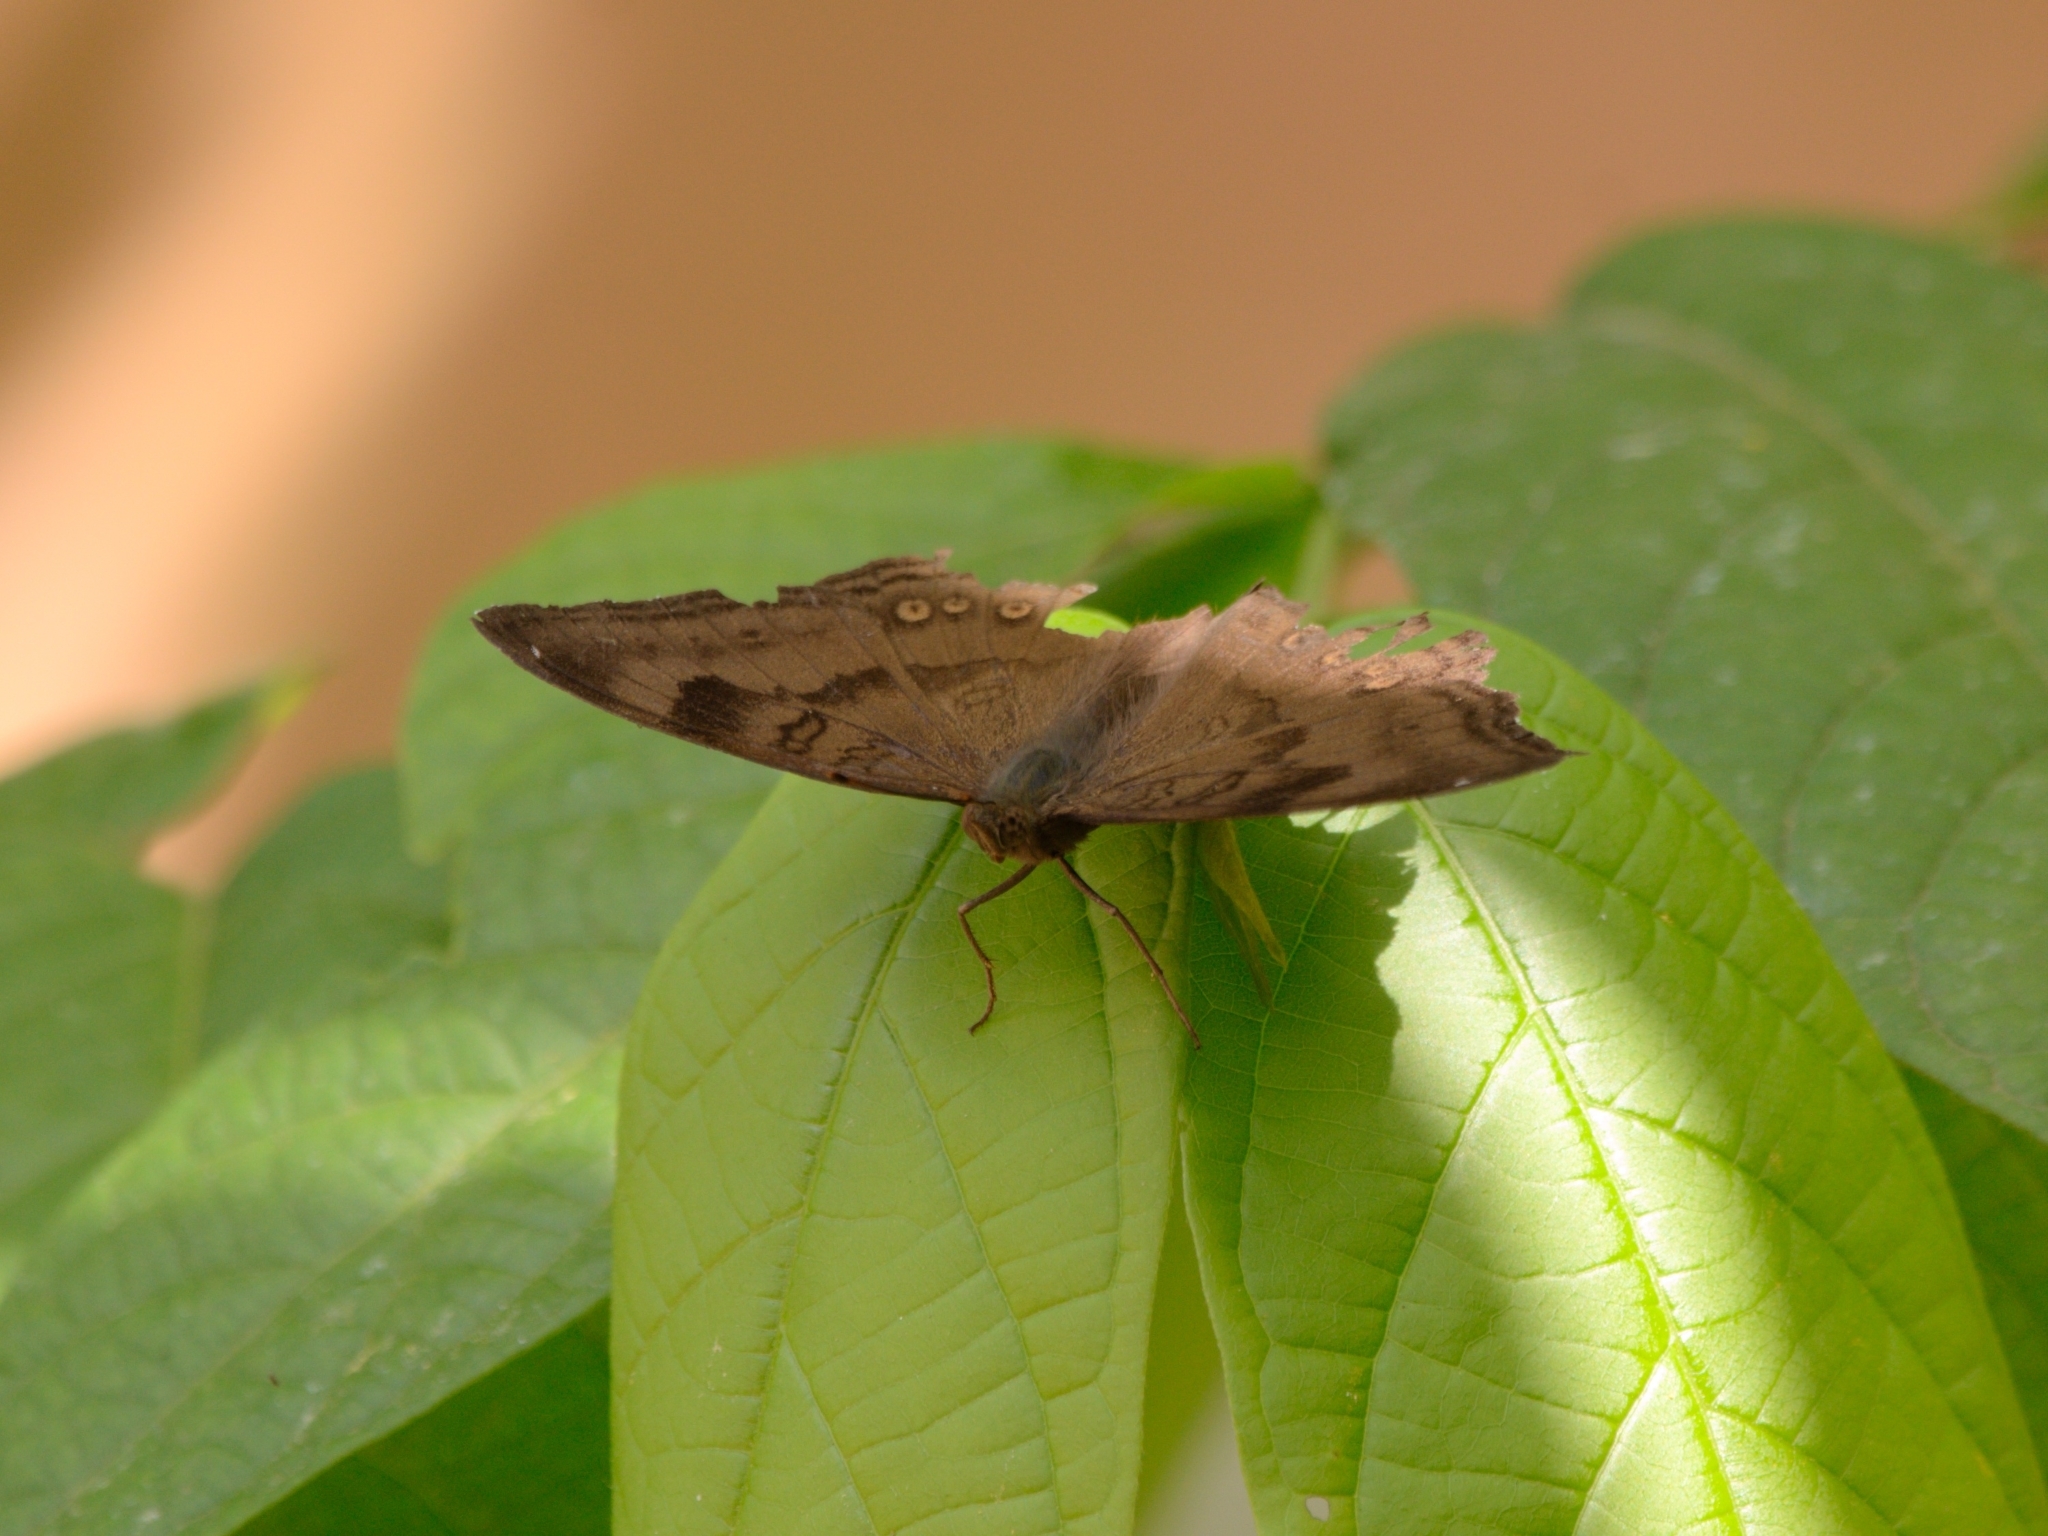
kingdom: Animalia
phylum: Arthropoda
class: Insecta
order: Lepidoptera
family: Nymphalidae
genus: Junonia
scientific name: Junonia iphita
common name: Chocolate pansy
